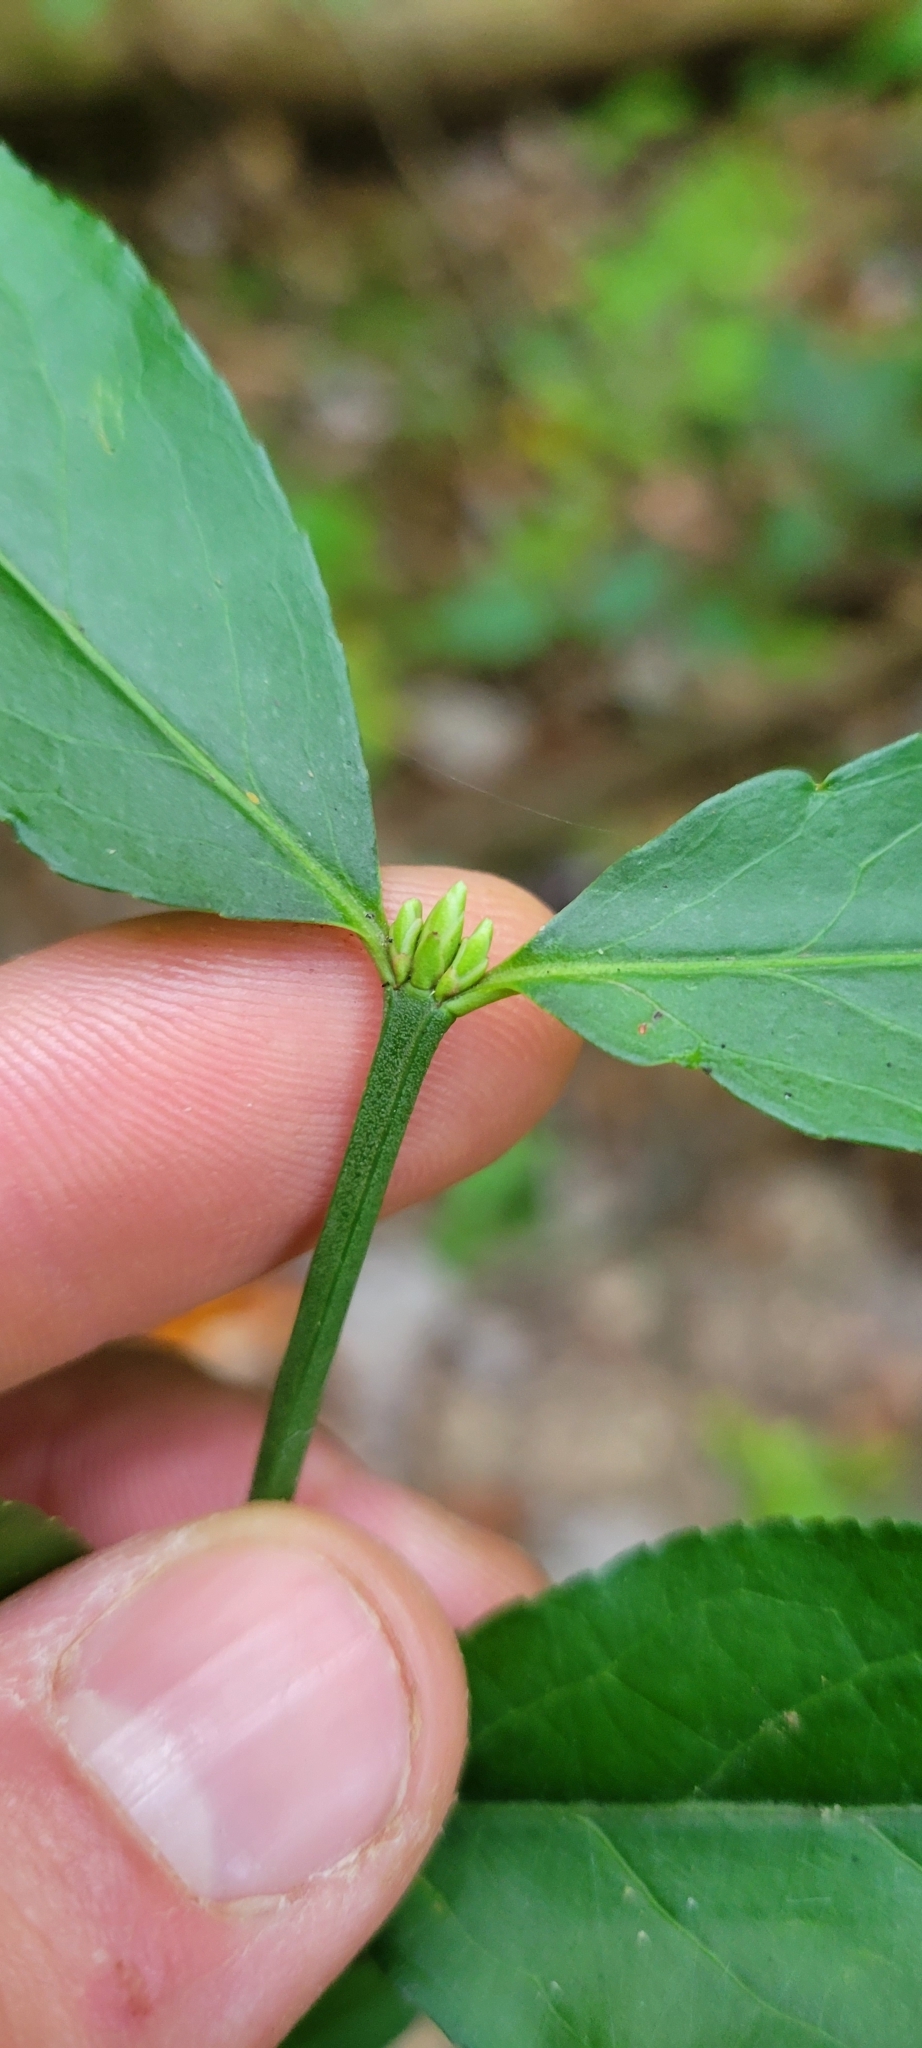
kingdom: Plantae
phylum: Tracheophyta
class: Magnoliopsida
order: Celastrales
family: Celastraceae
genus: Euonymus
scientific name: Euonymus americanus
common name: Bursting-heart
